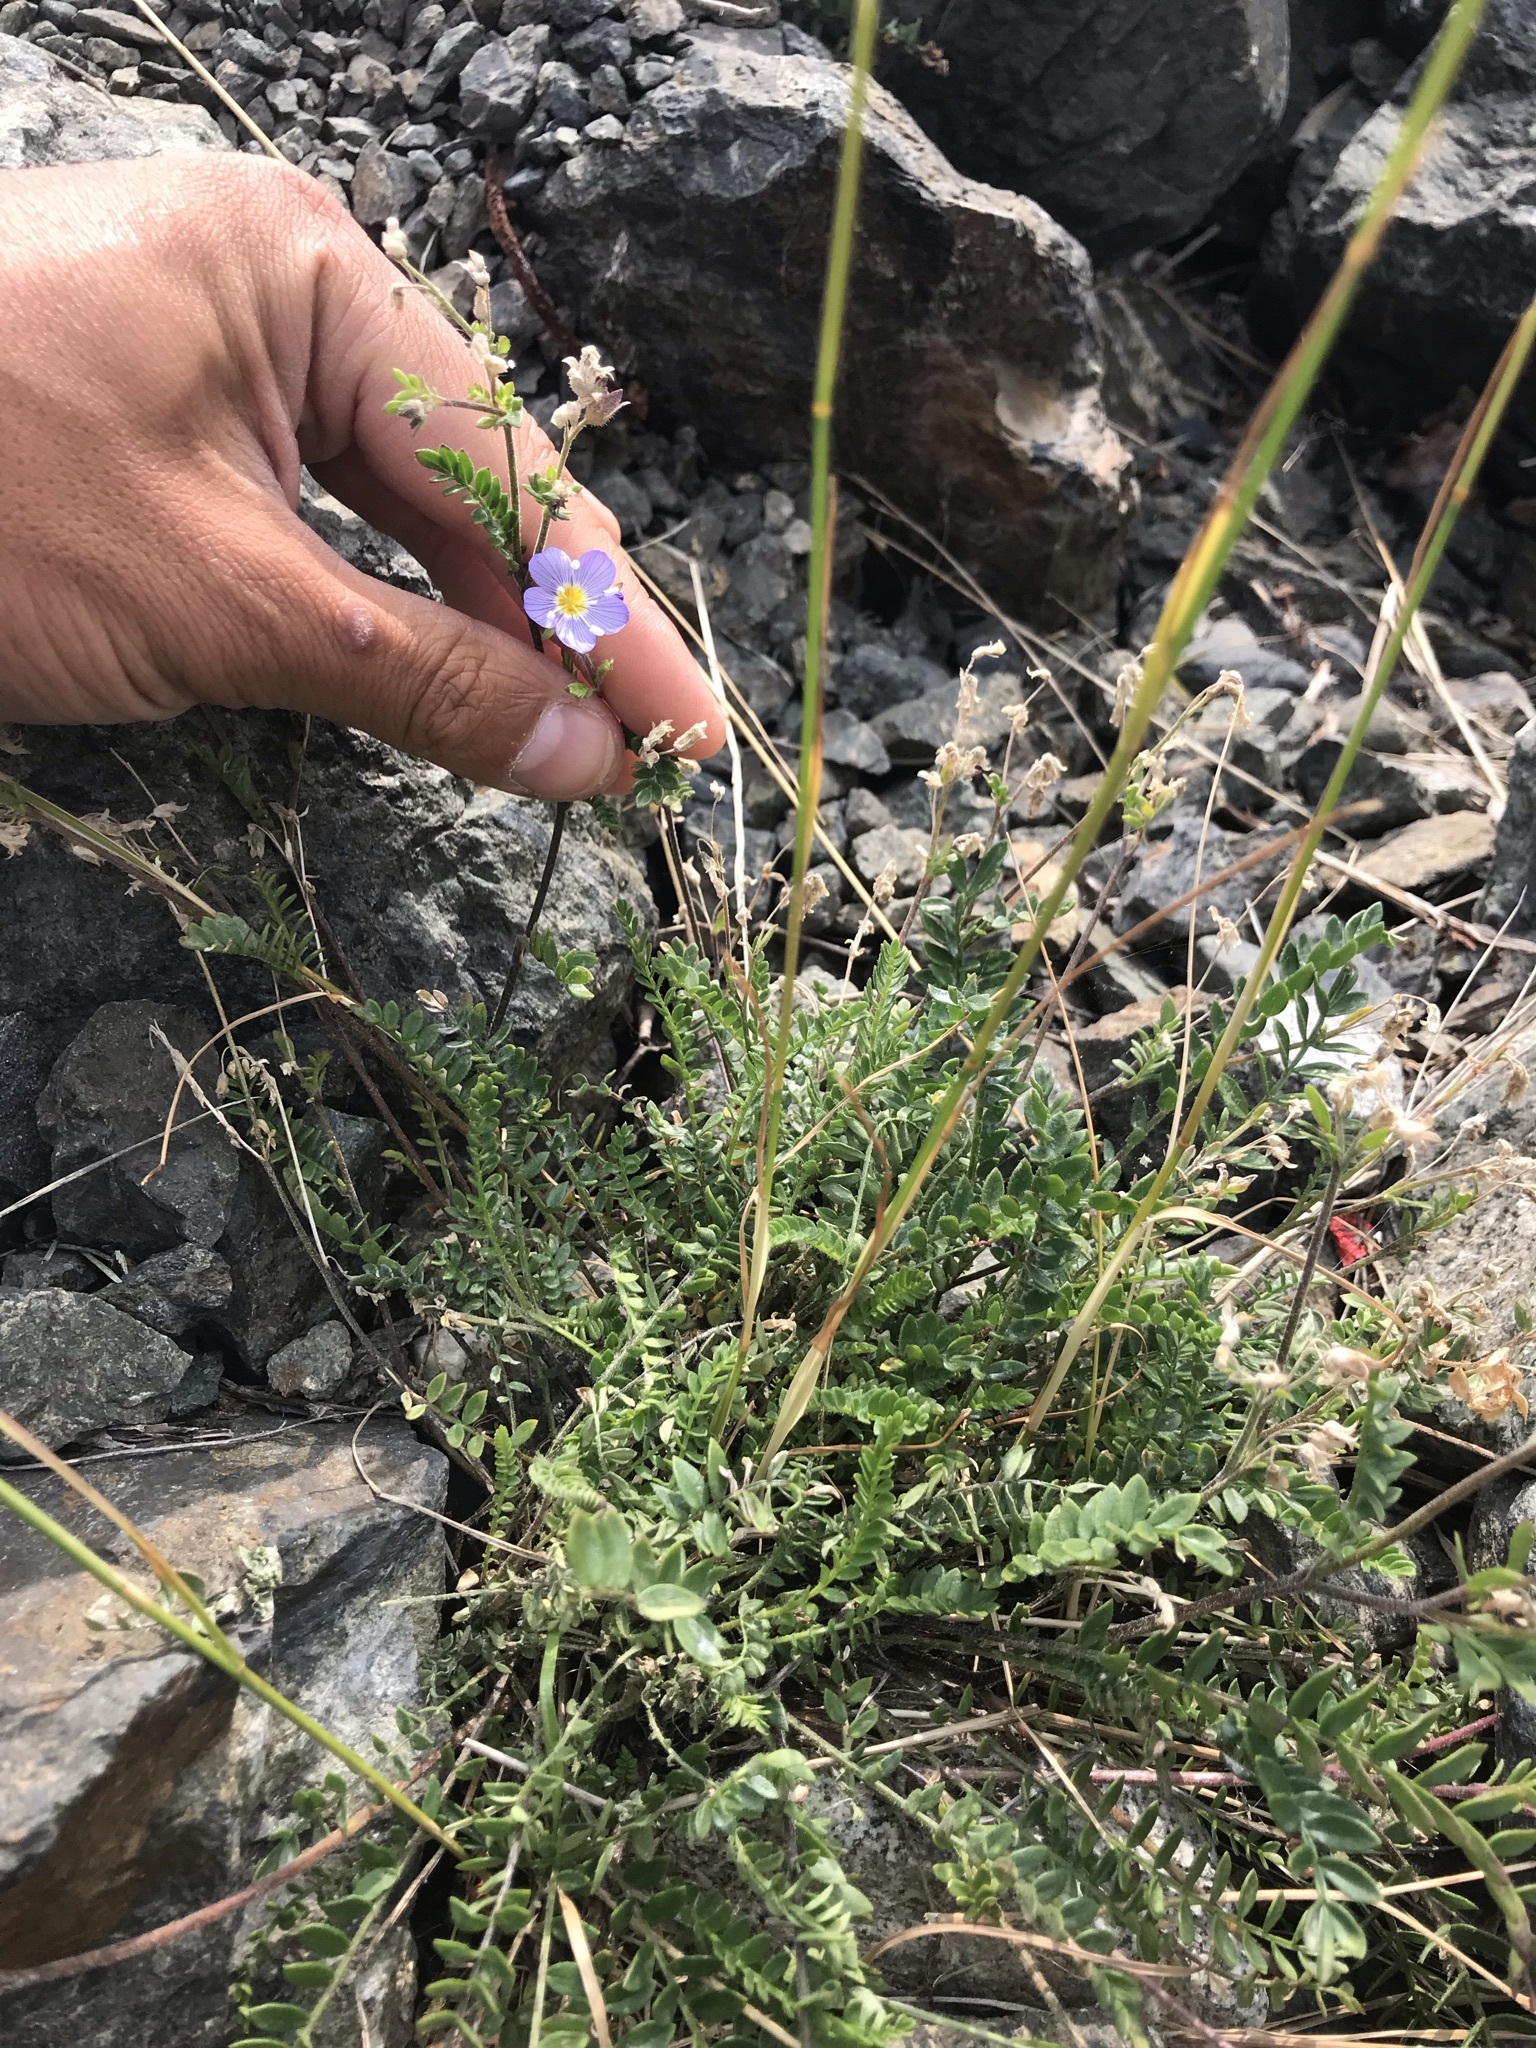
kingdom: Plantae
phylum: Tracheophyta
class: Magnoliopsida
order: Ericales
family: Polemoniaceae
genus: Polemonium
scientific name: Polemonium pulcherrimum
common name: Short jacob's-ladder
